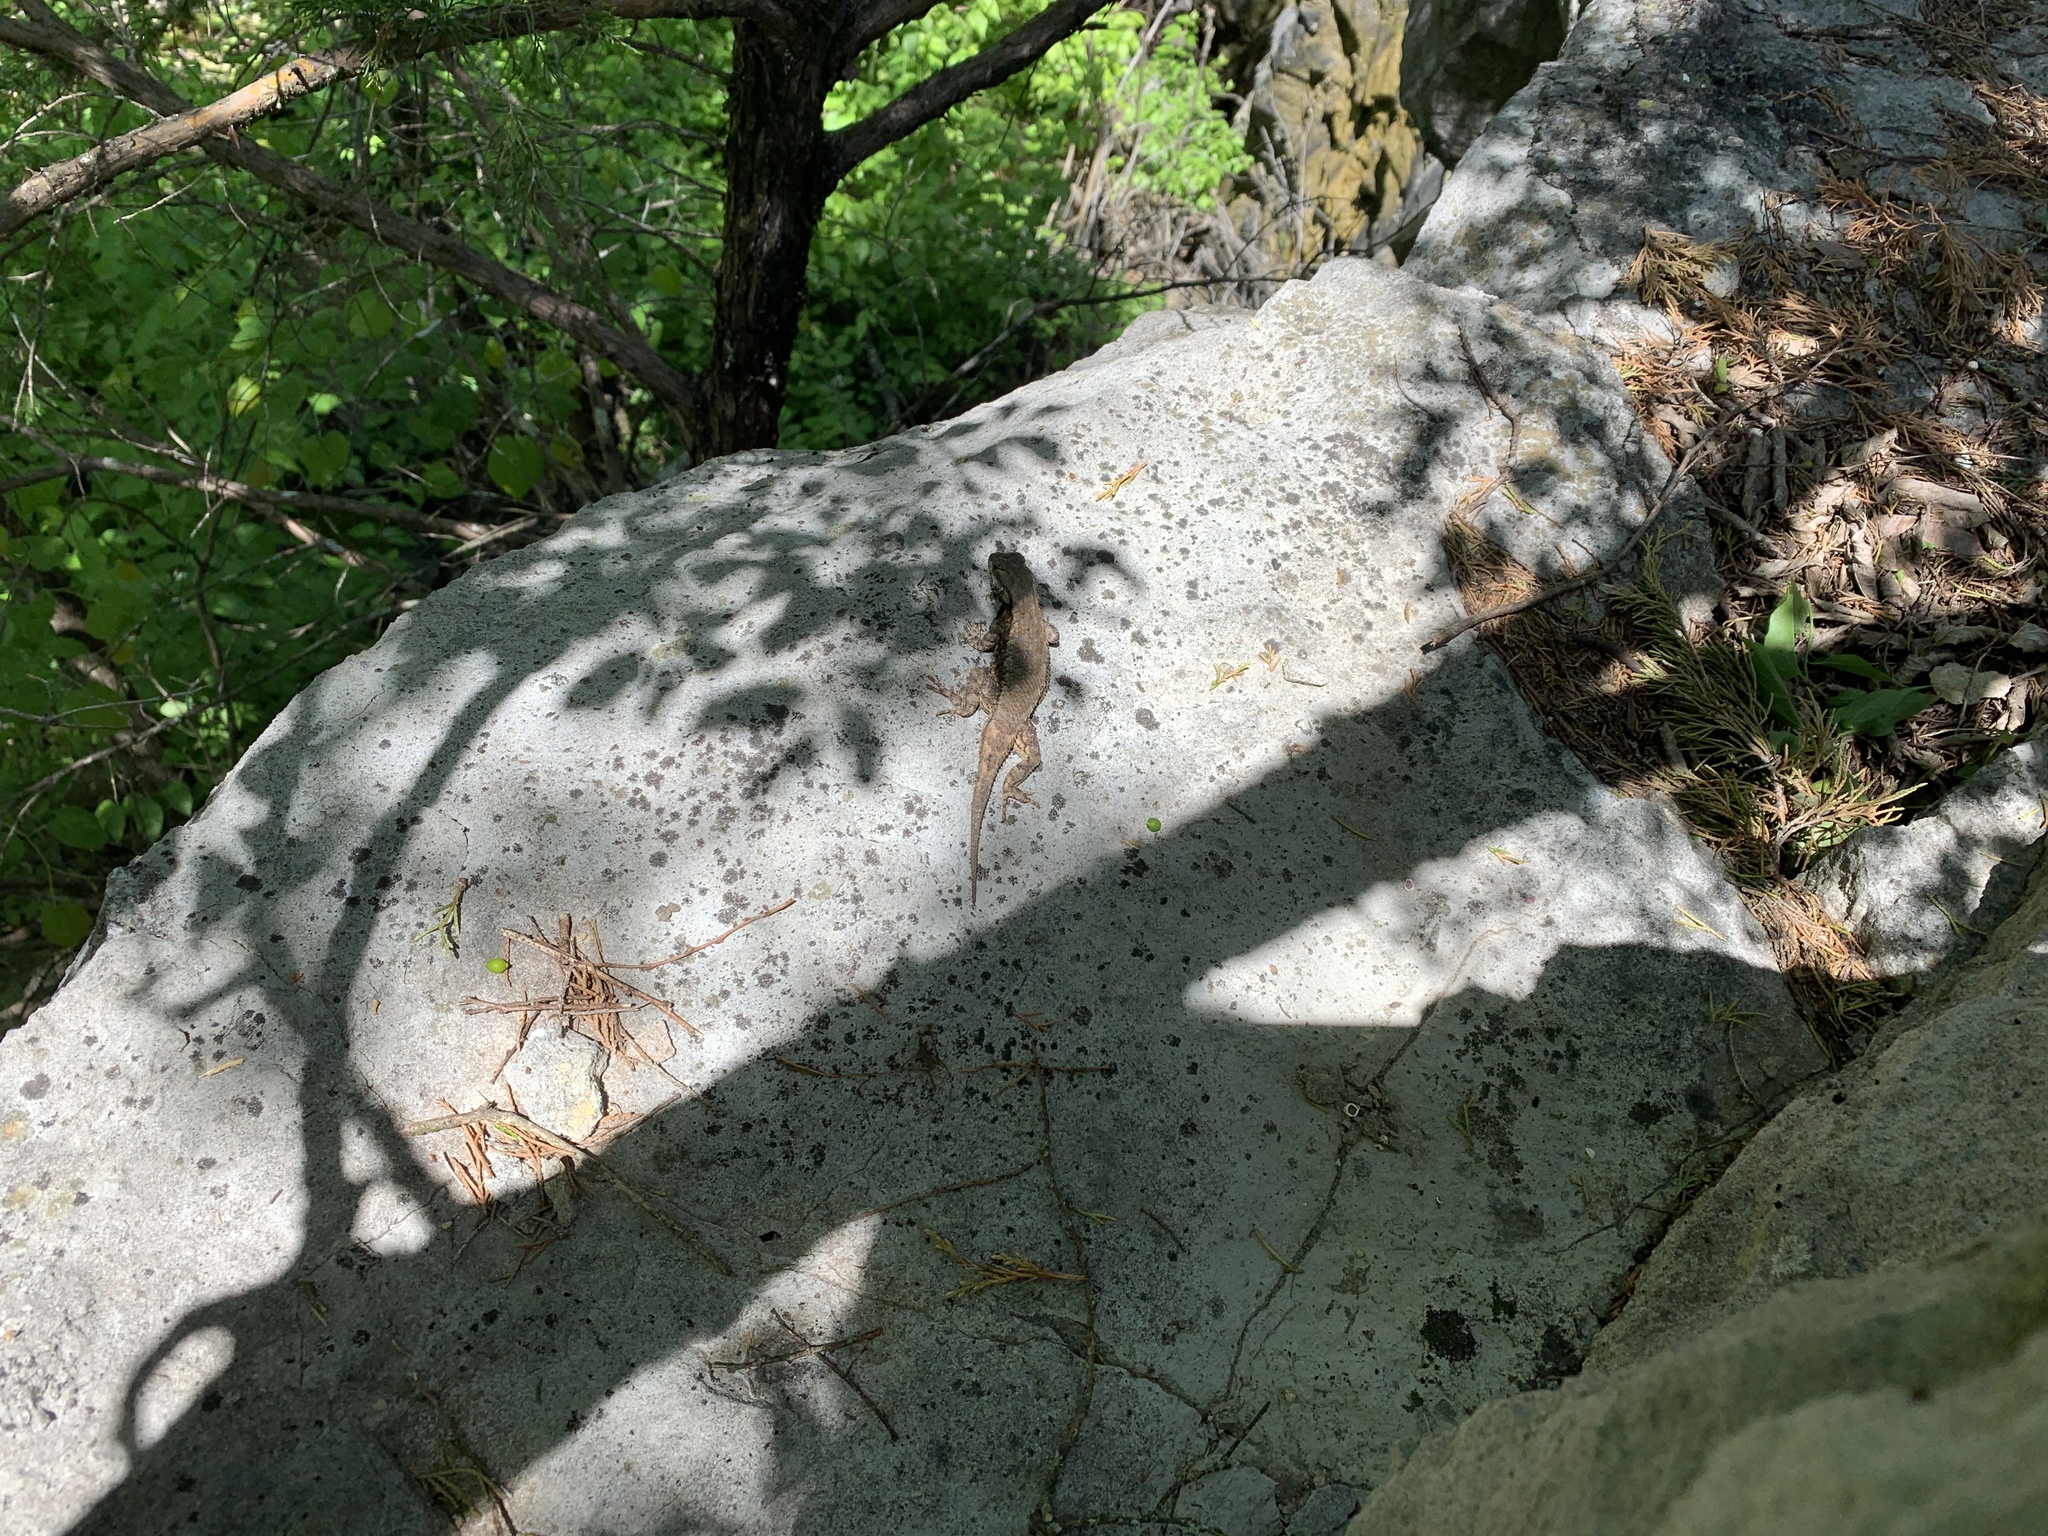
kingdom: Animalia
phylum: Chordata
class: Squamata
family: Phrynosomatidae
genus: Sceloporus
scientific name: Sceloporus undulatus
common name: Eastern fence lizard
